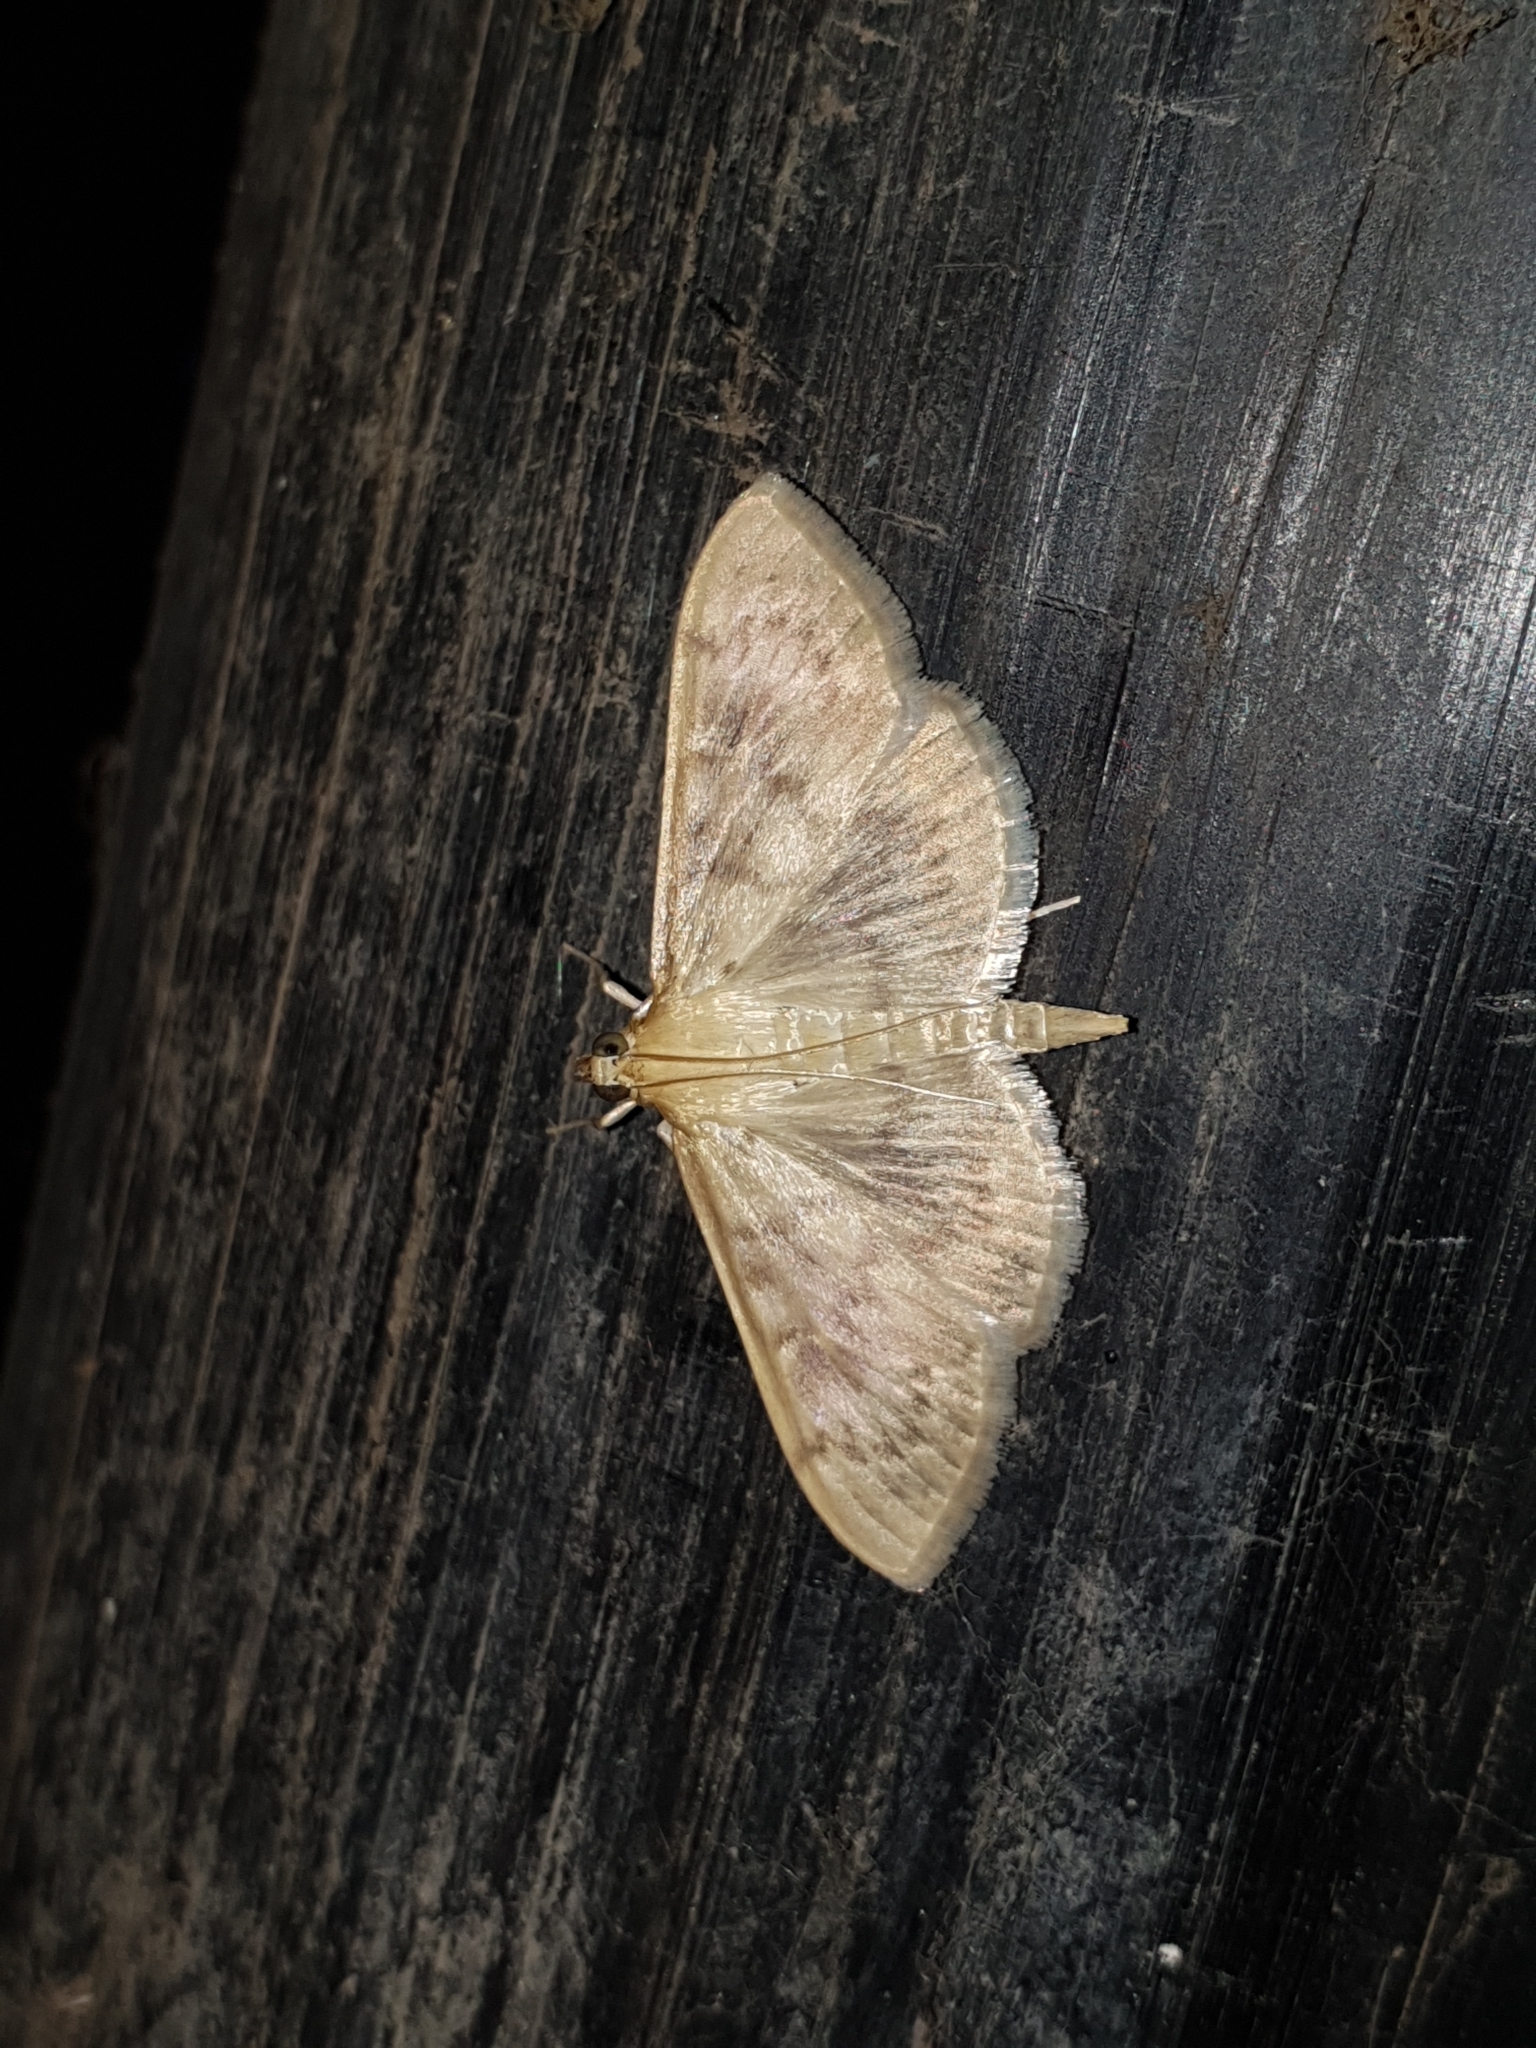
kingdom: Animalia
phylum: Arthropoda
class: Insecta
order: Lepidoptera
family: Crambidae
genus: Patania
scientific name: Patania ruralis
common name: Mother of pearl
